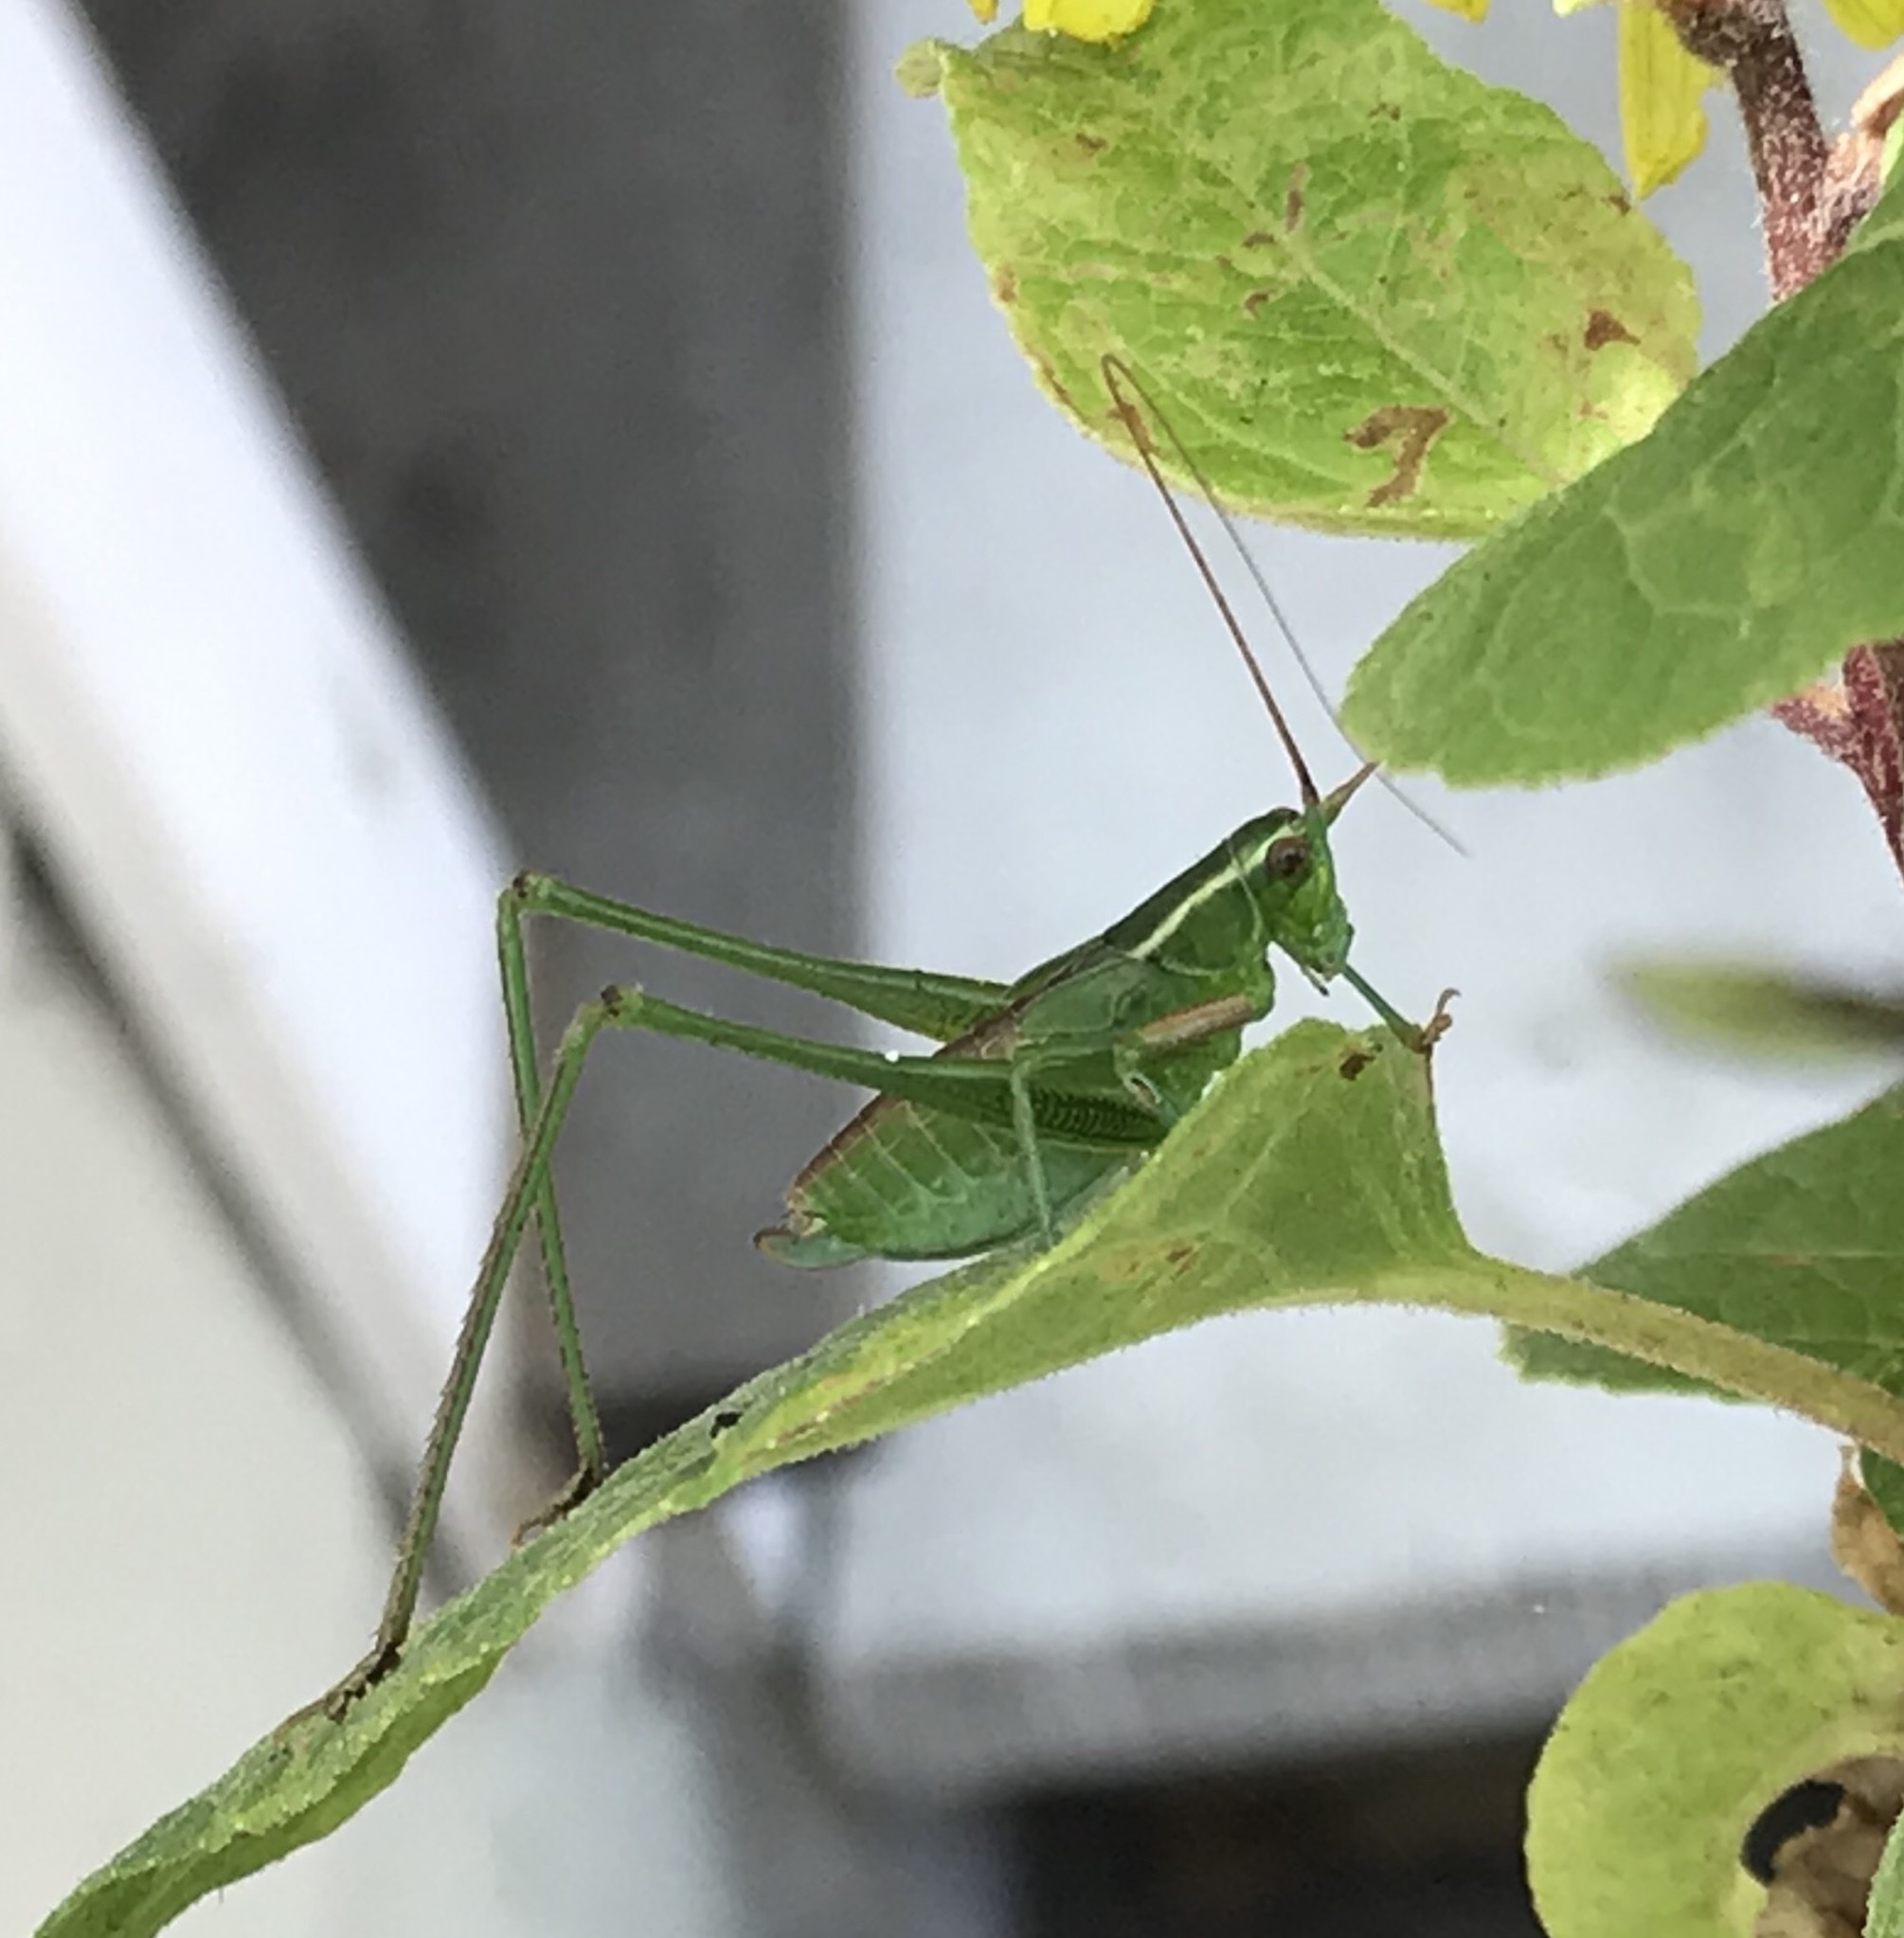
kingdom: Animalia
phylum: Arthropoda
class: Insecta
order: Orthoptera
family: Tettigoniidae
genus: Scudderia
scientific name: Scudderia
